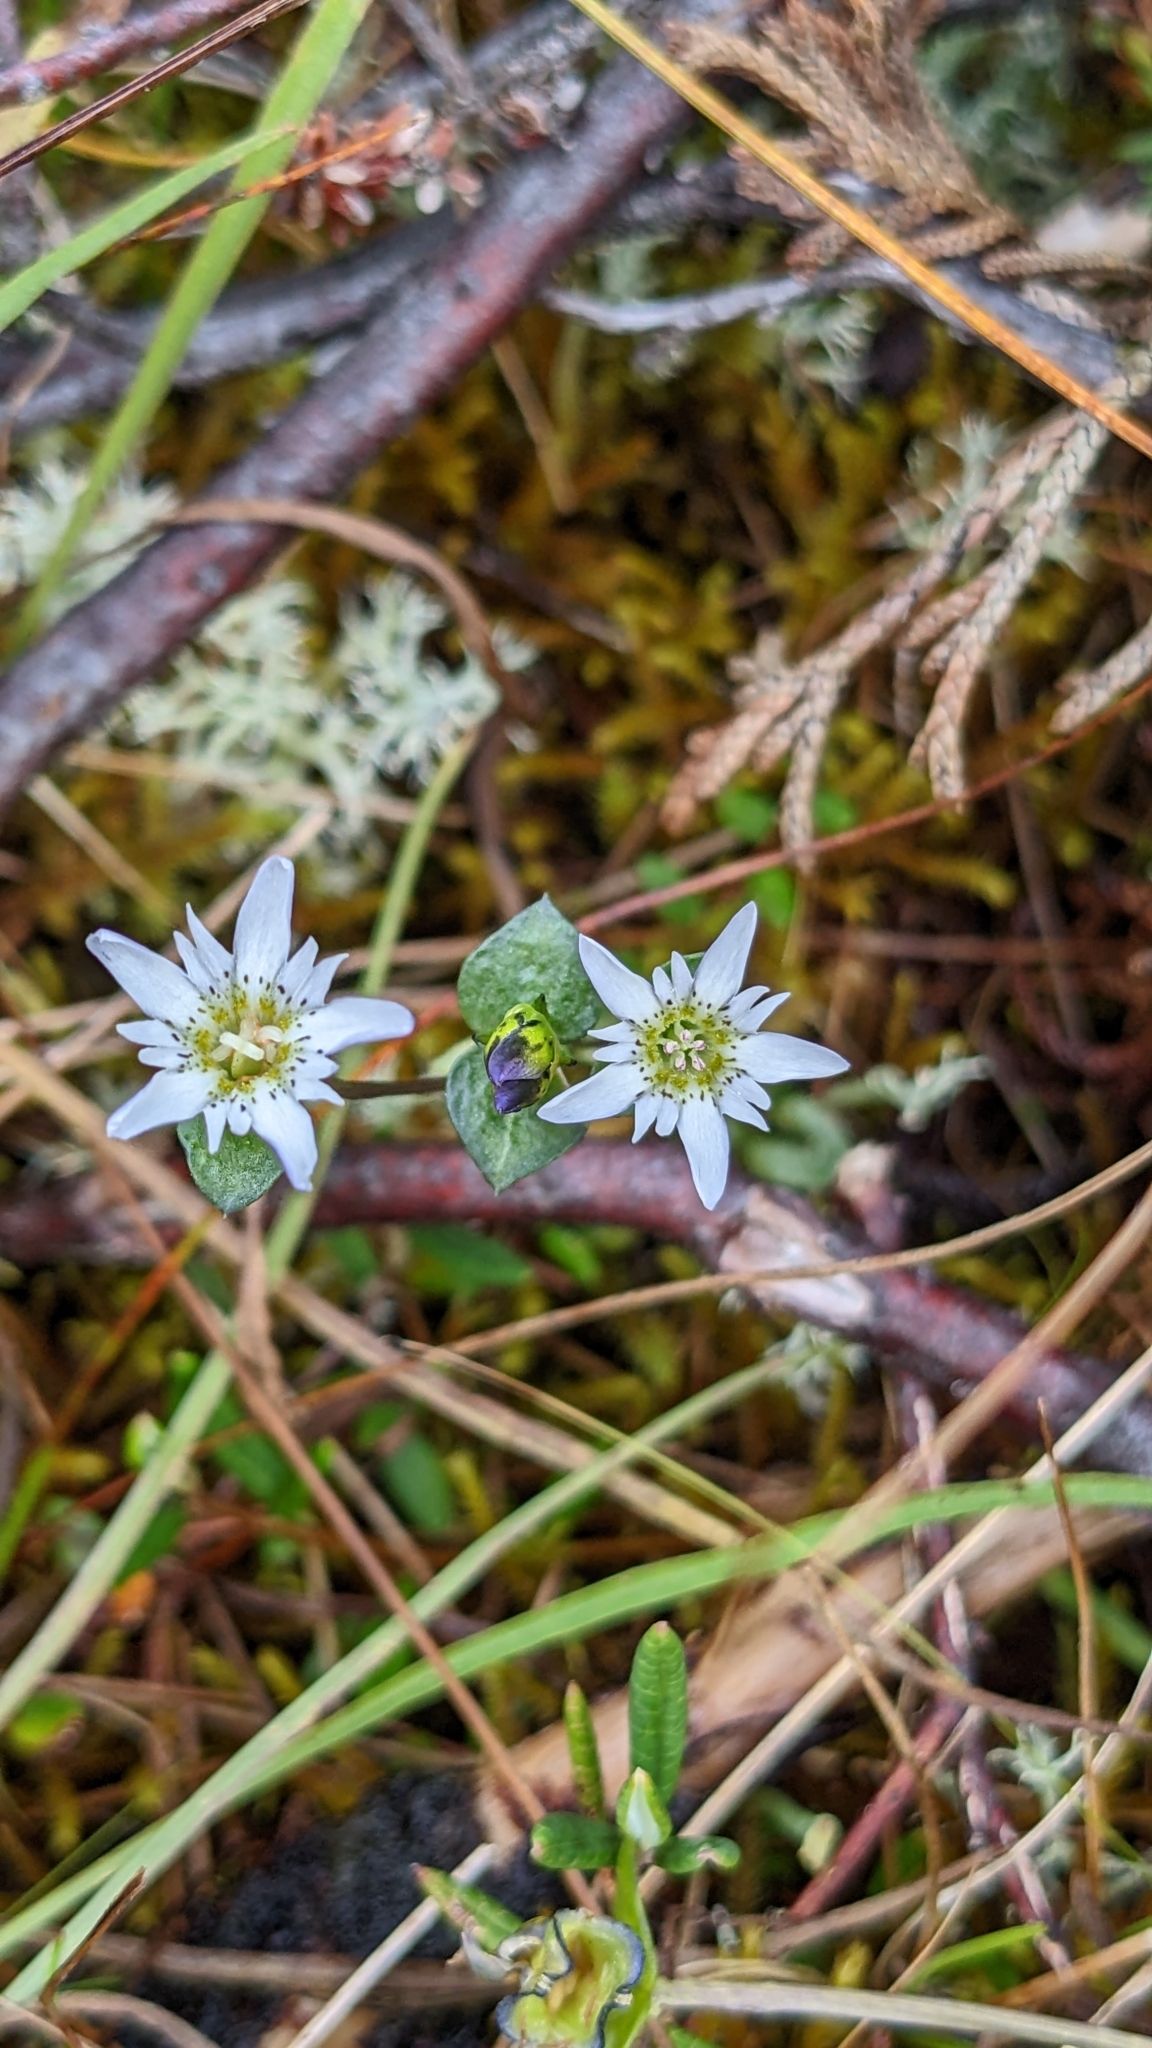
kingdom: Plantae
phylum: Tracheophyta
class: Magnoliopsida
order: Gentianales
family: Gentianaceae
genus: Gentiana
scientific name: Gentiana douglasiana
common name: Swamp gentian
